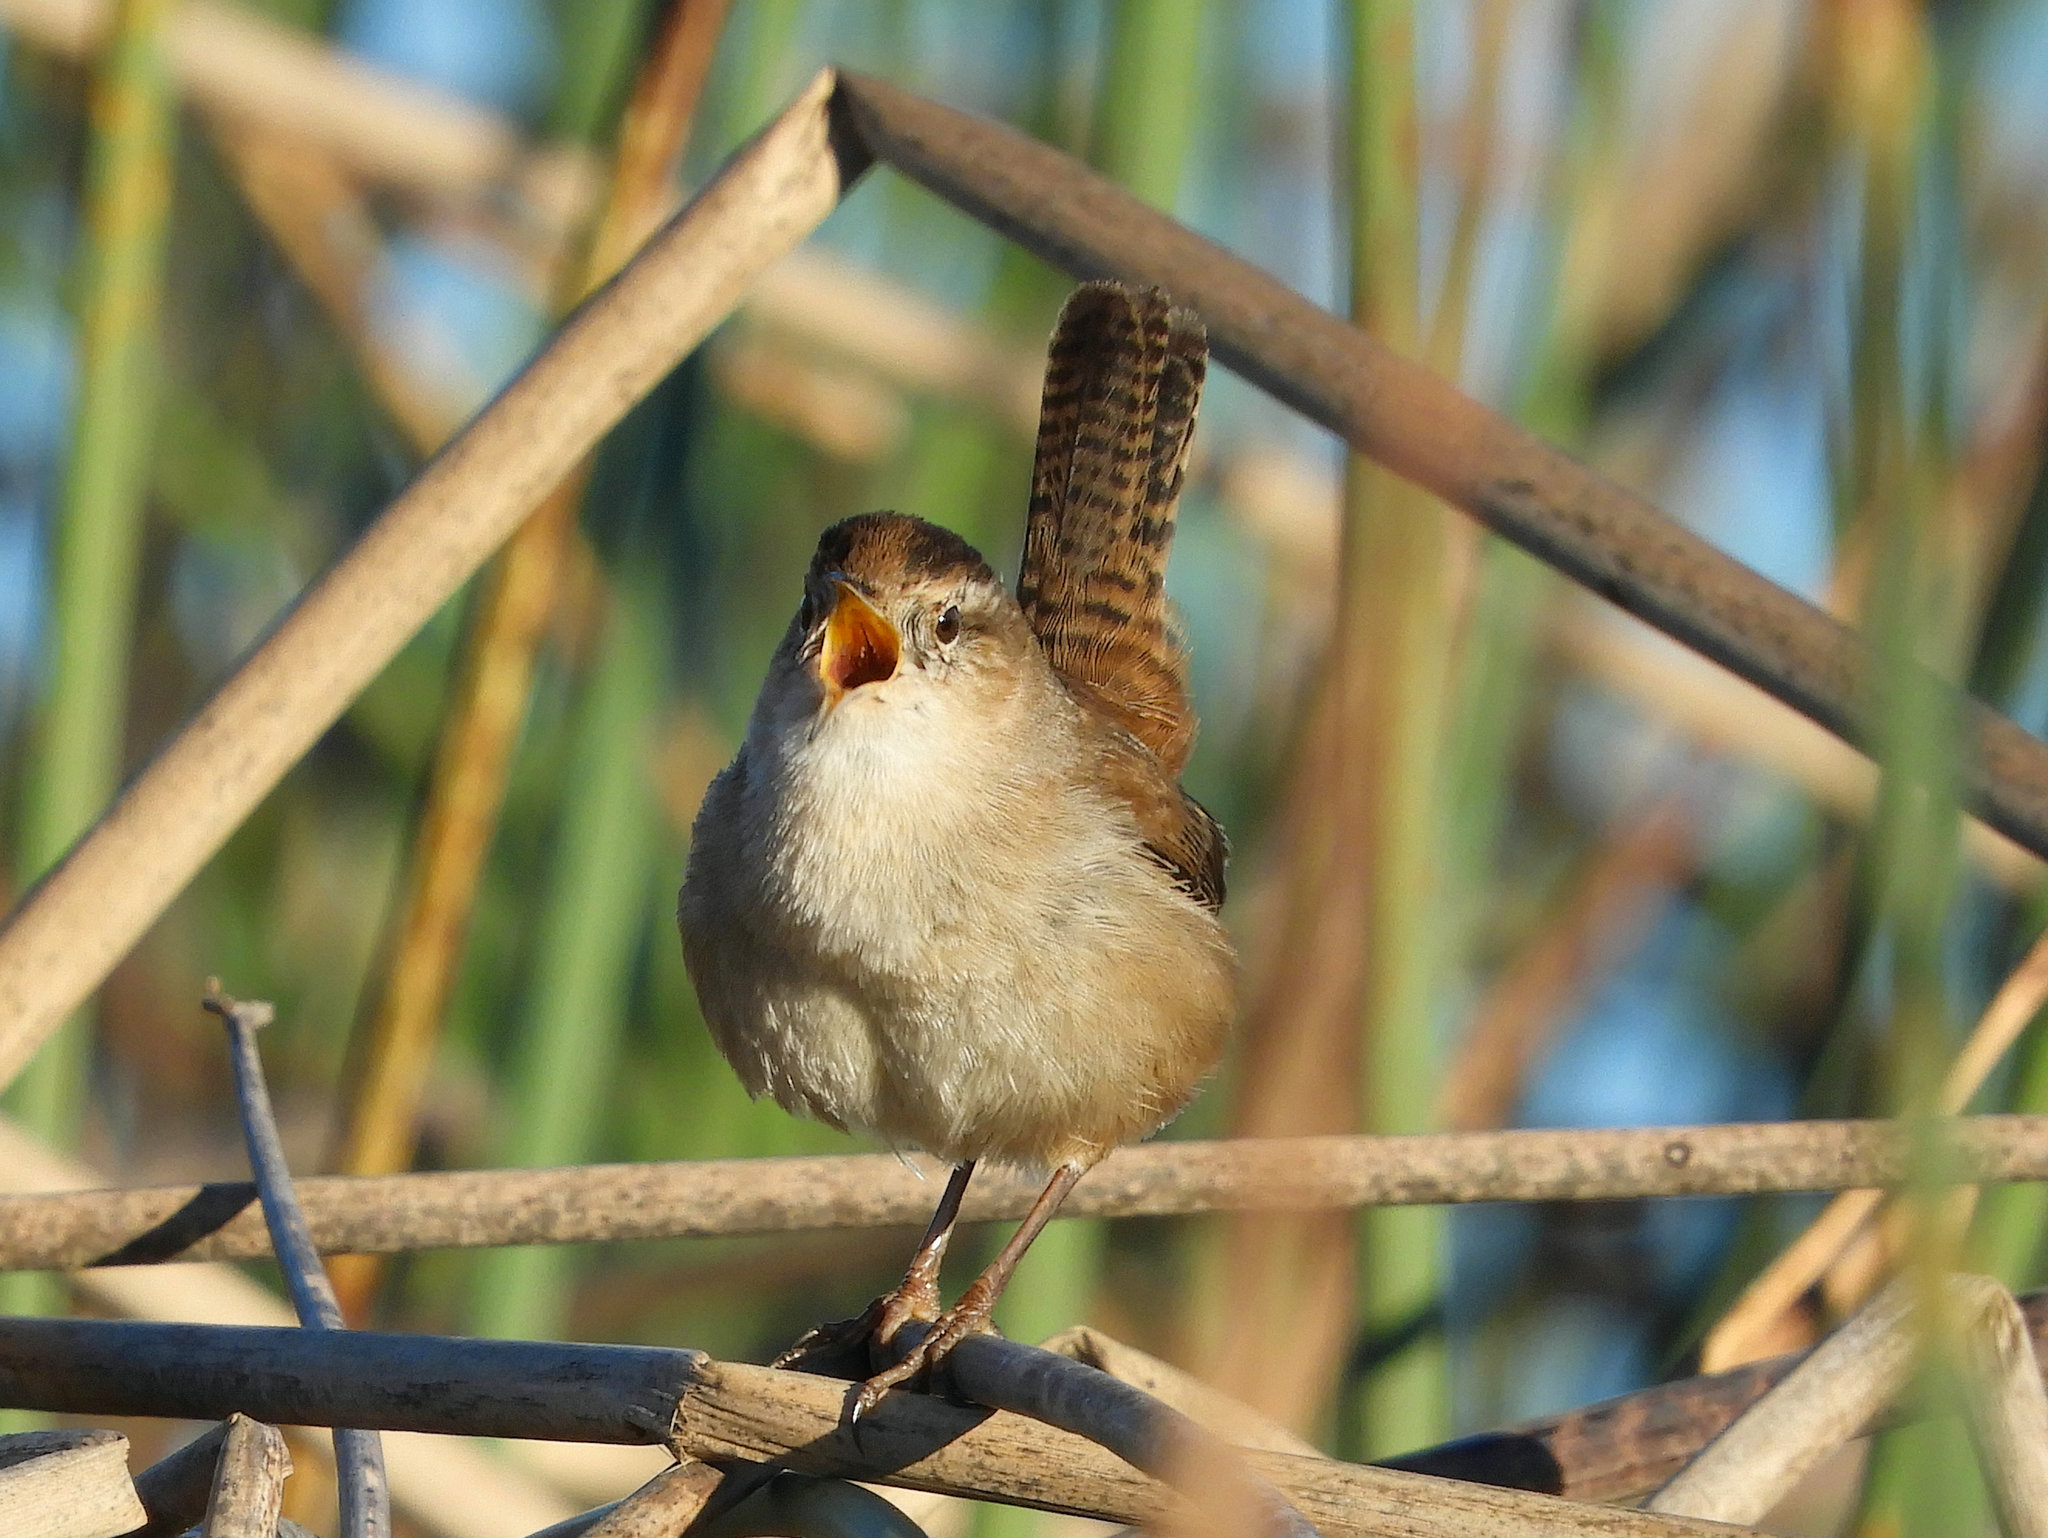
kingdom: Animalia
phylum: Chordata
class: Aves
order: Passeriformes
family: Troglodytidae
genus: Cistothorus
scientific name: Cistothorus palustris
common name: Marsh wren
